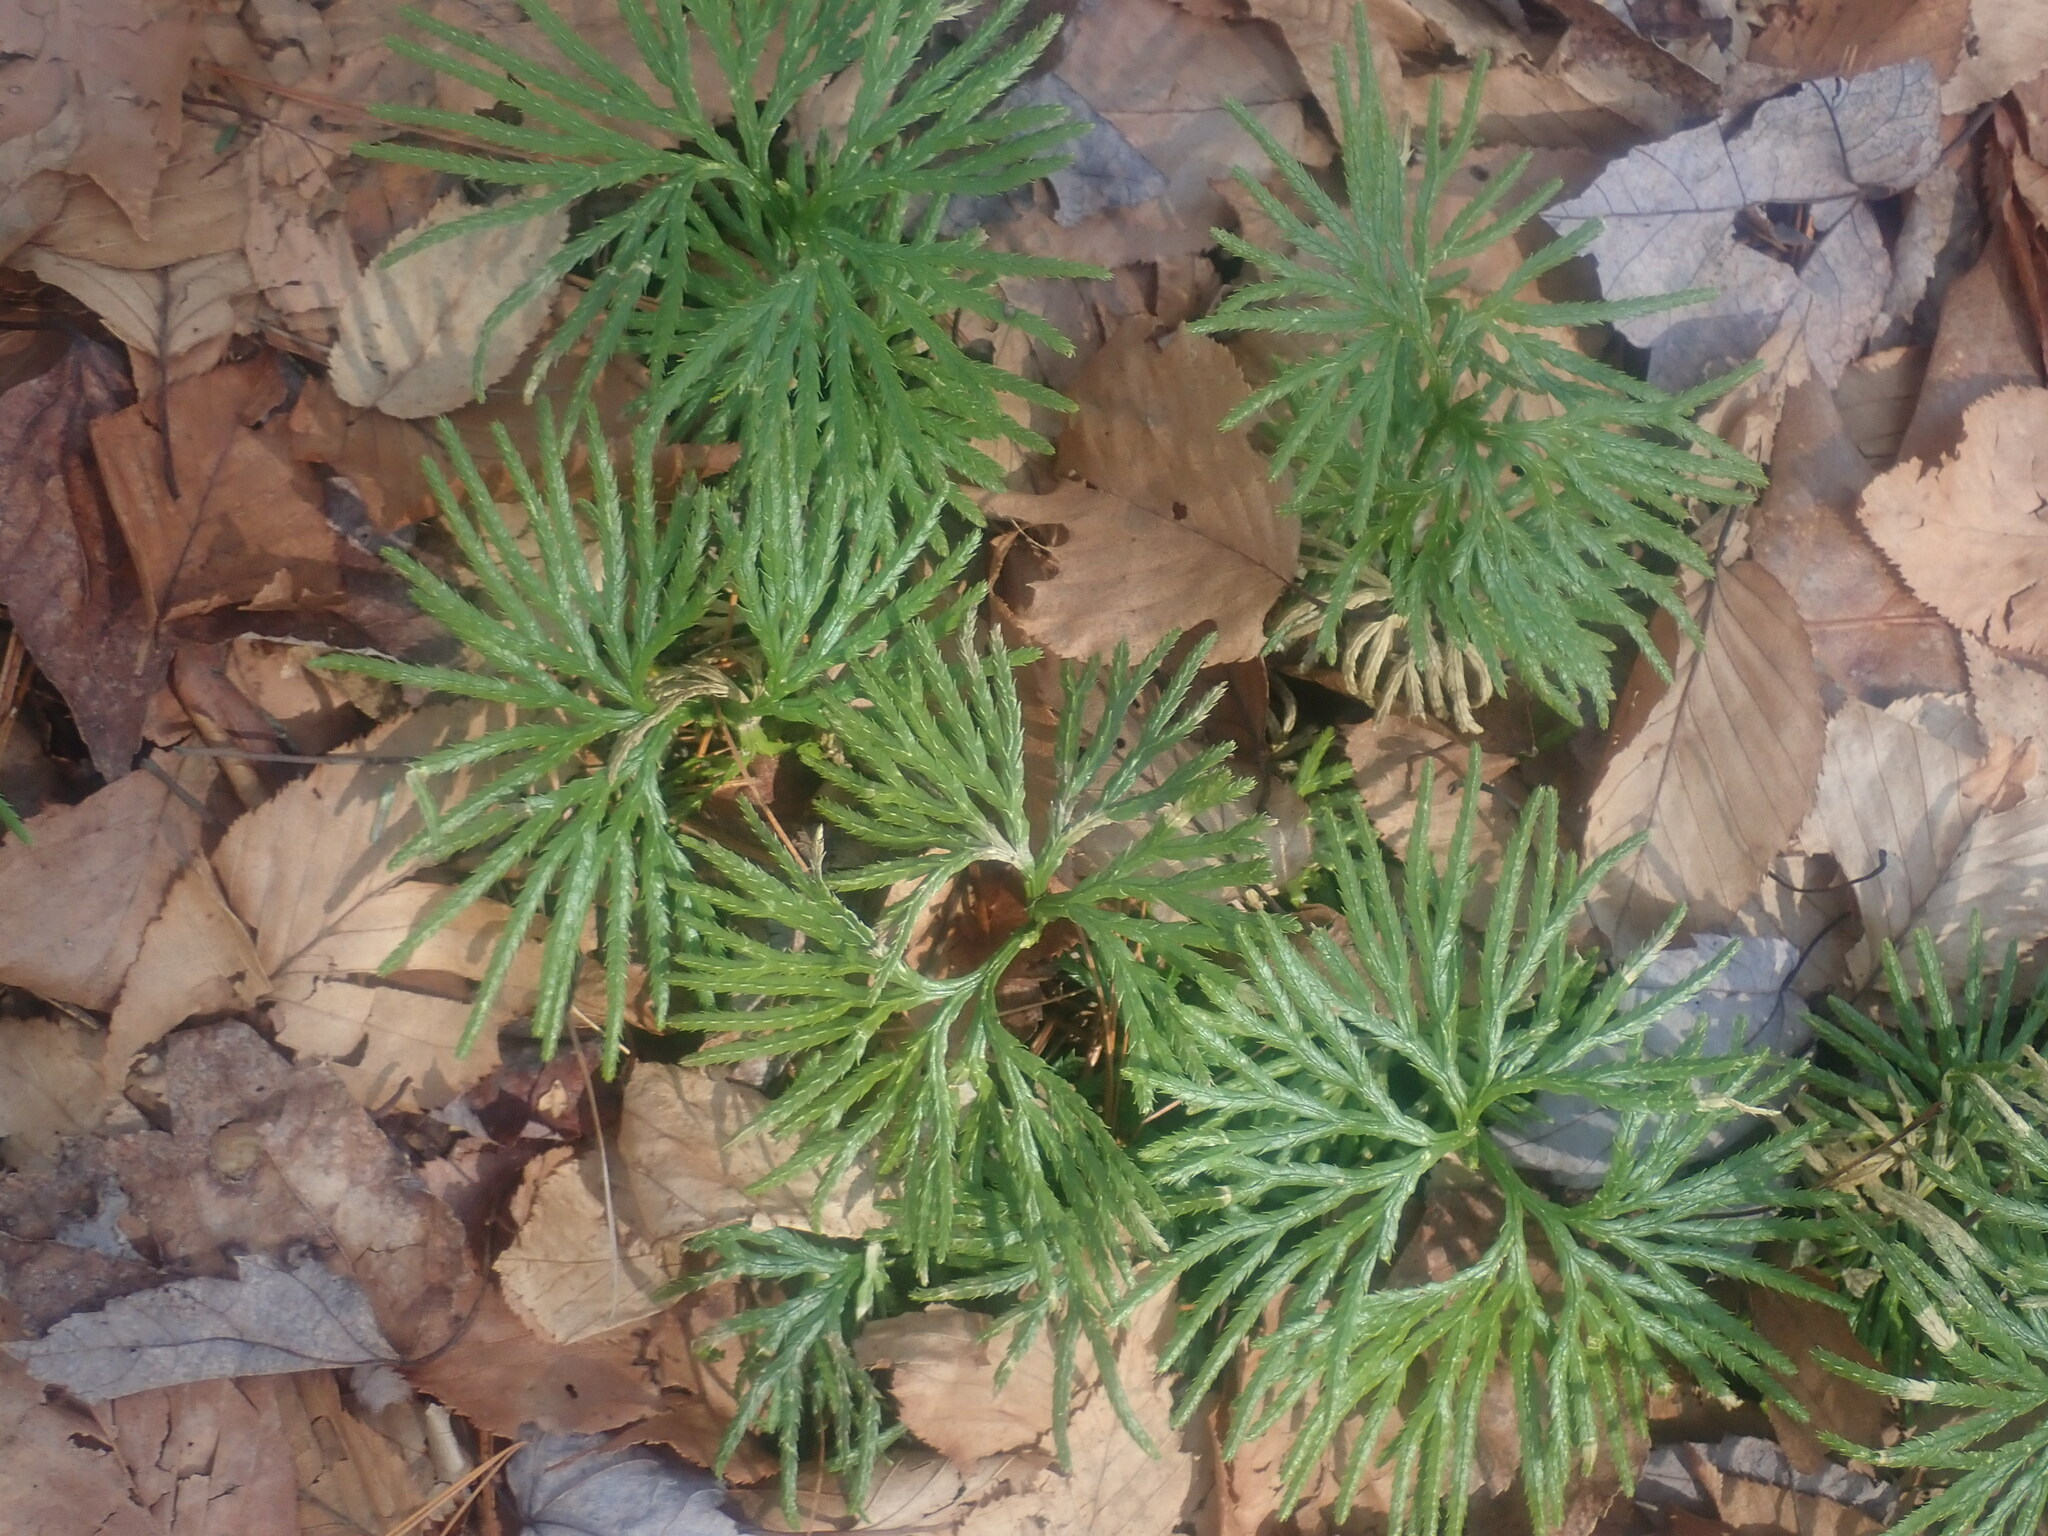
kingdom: Plantae
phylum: Tracheophyta
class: Lycopodiopsida
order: Lycopodiales
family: Lycopodiaceae
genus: Diphasiastrum
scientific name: Diphasiastrum digitatum
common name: Southern running-pine
